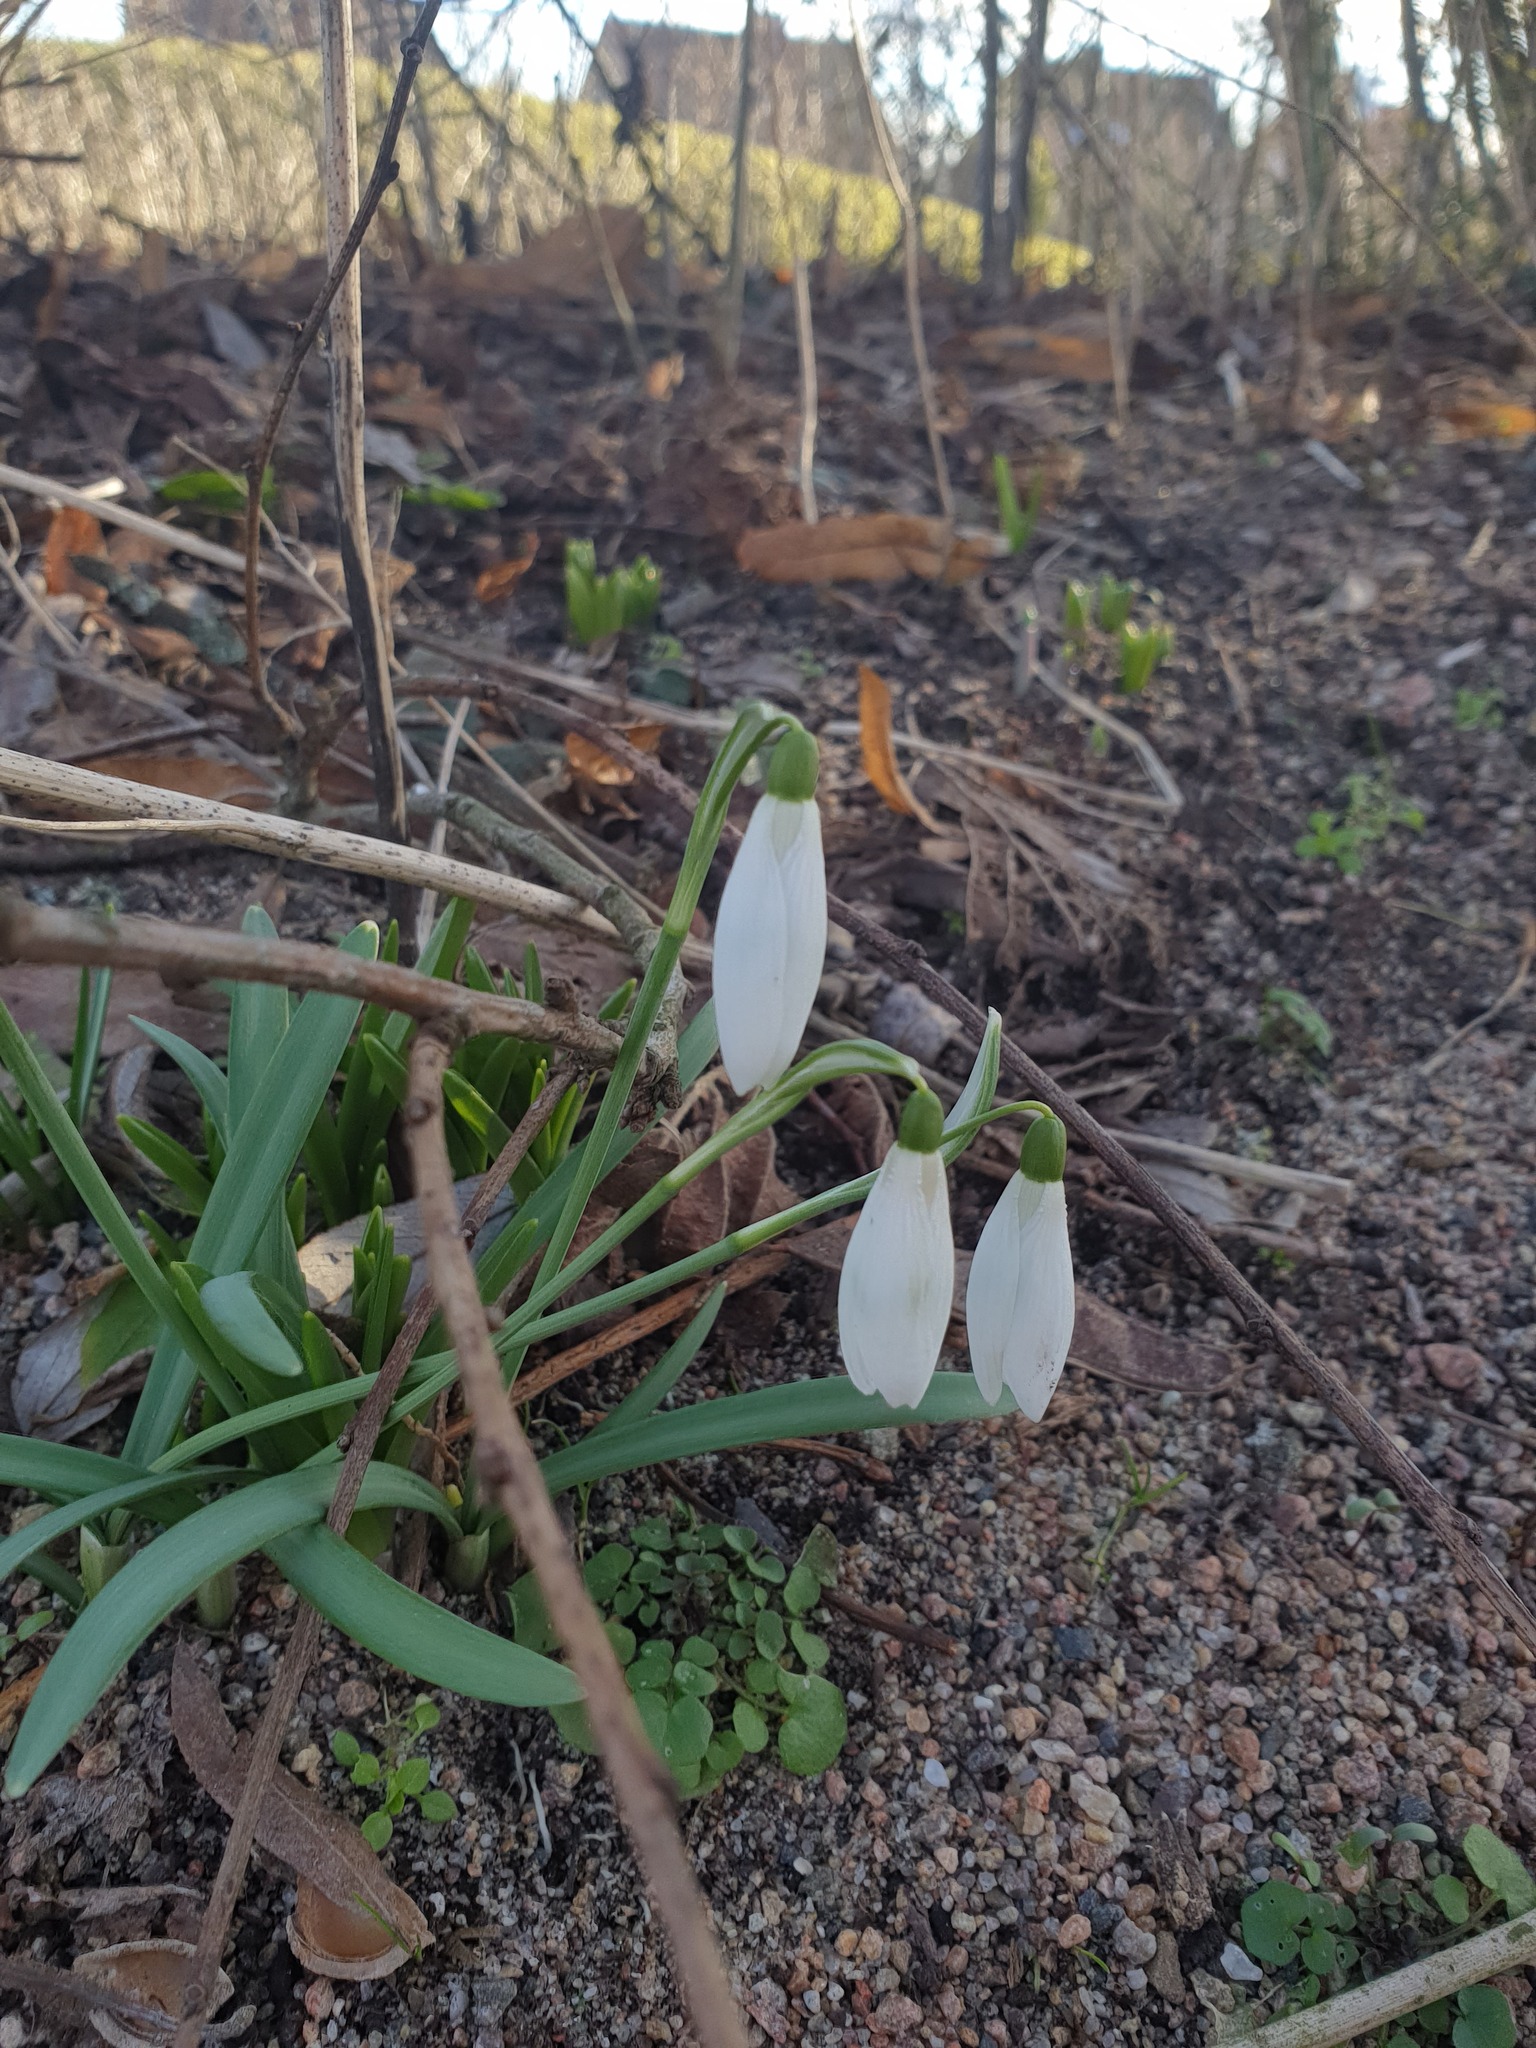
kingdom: Plantae
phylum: Tracheophyta
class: Liliopsida
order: Asparagales
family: Amaryllidaceae
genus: Galanthus
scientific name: Galanthus nivalis
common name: Snowdrop
